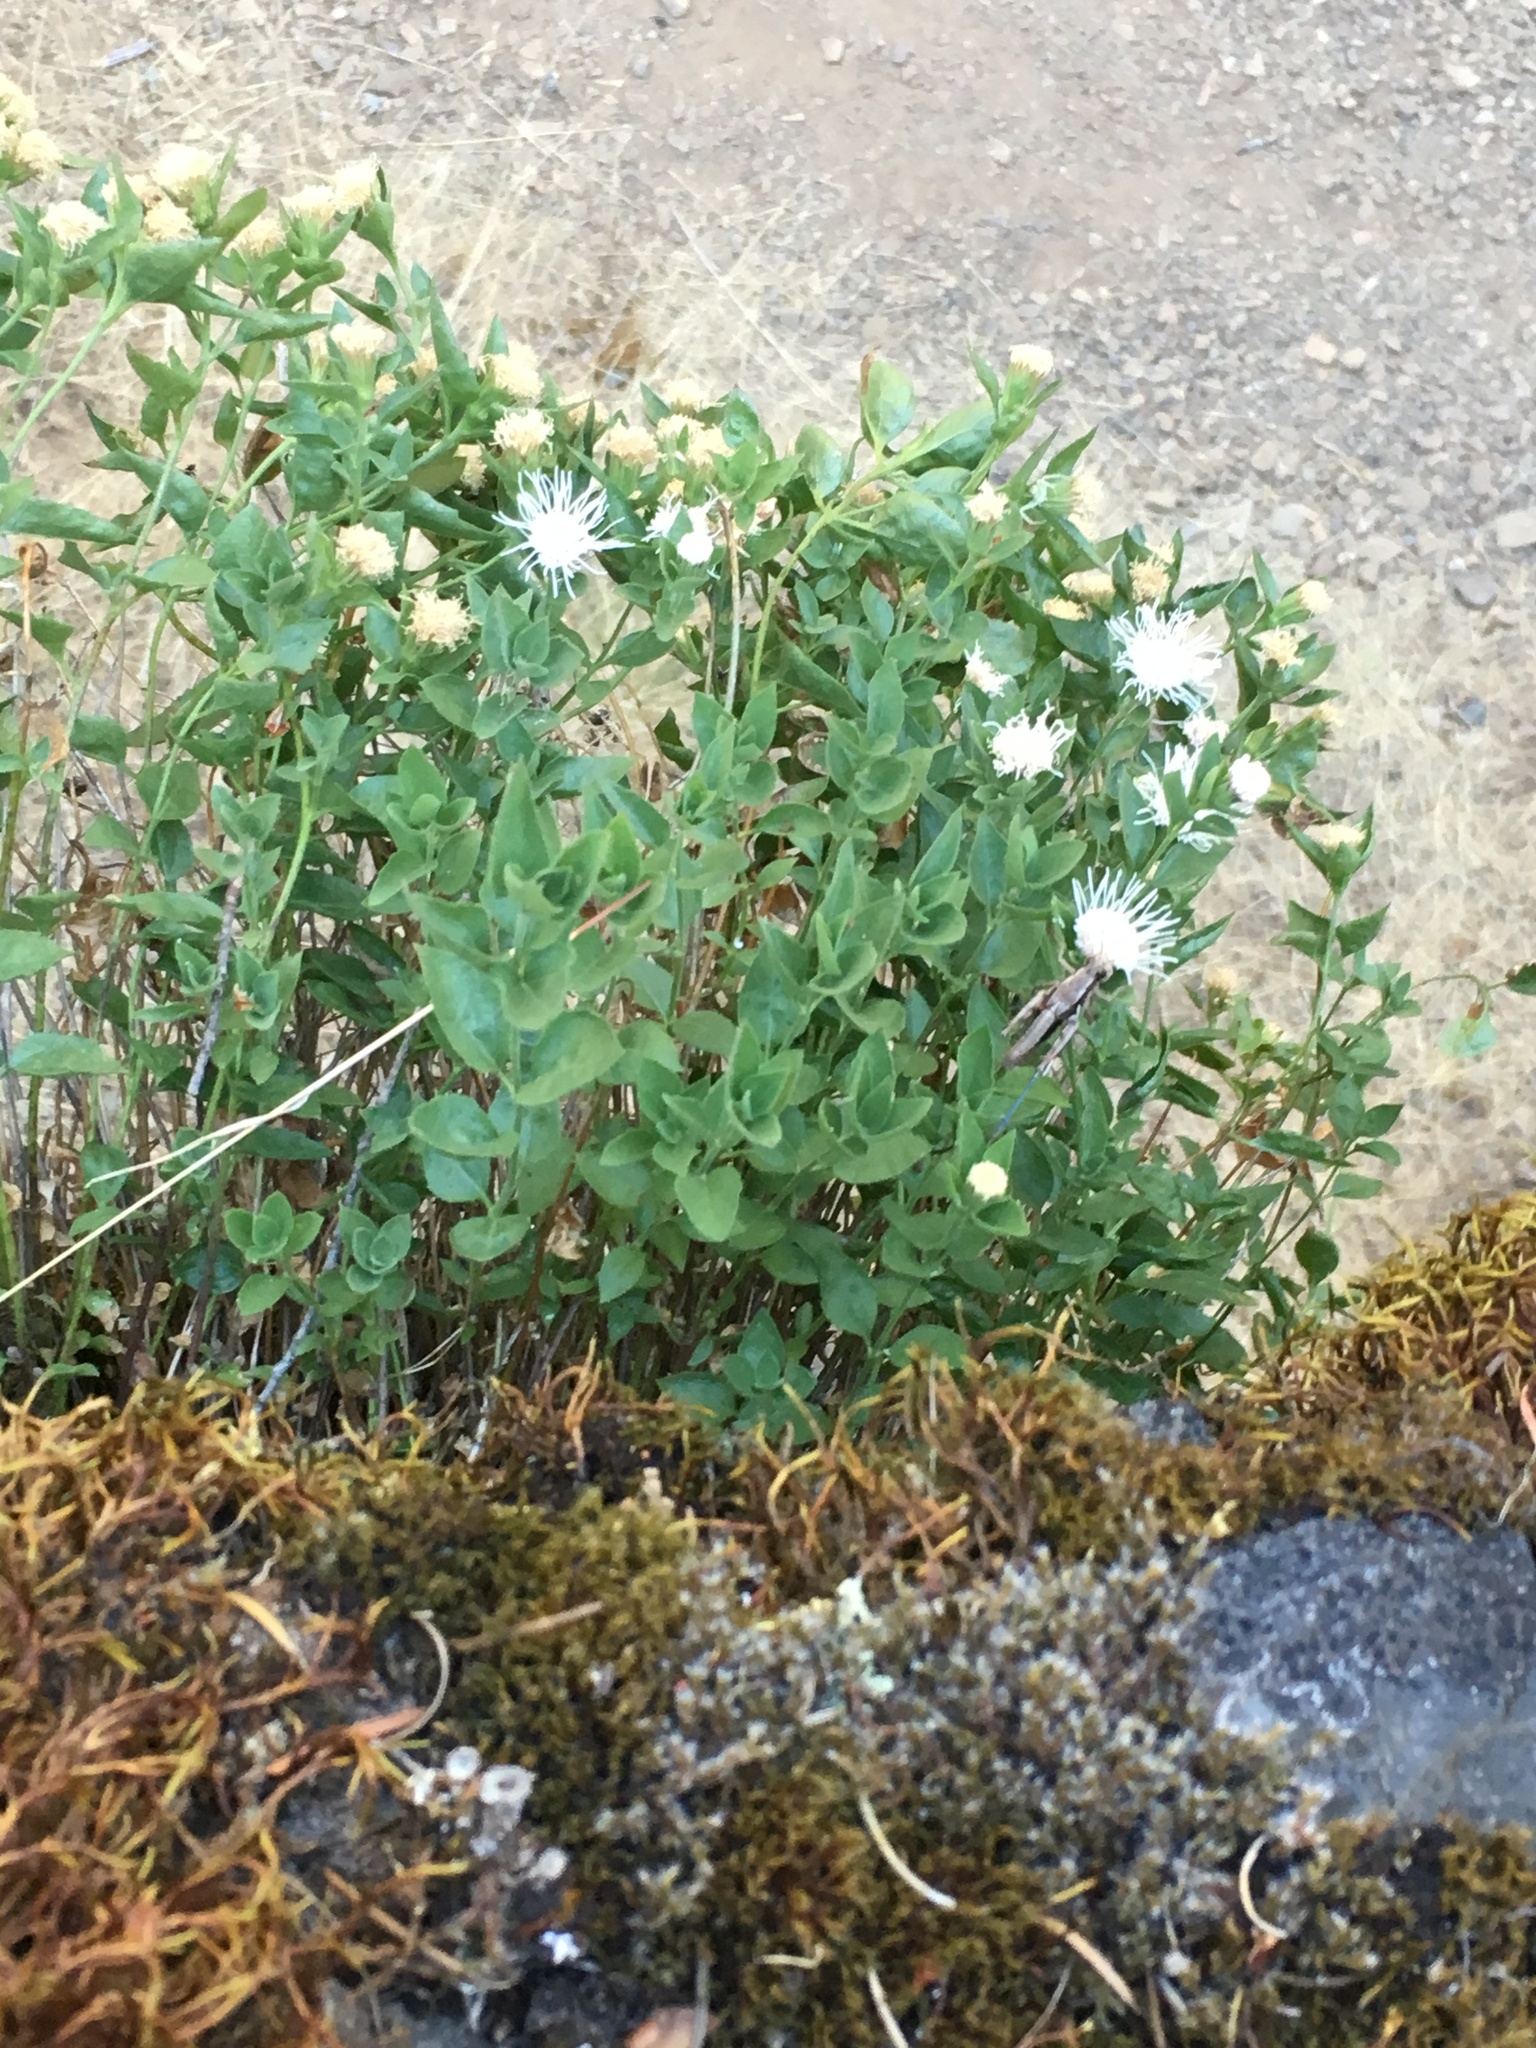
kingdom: Plantae
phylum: Tracheophyta
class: Magnoliopsida
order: Asterales
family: Asteraceae
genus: Ageratina
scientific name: Ageratina shastensis
